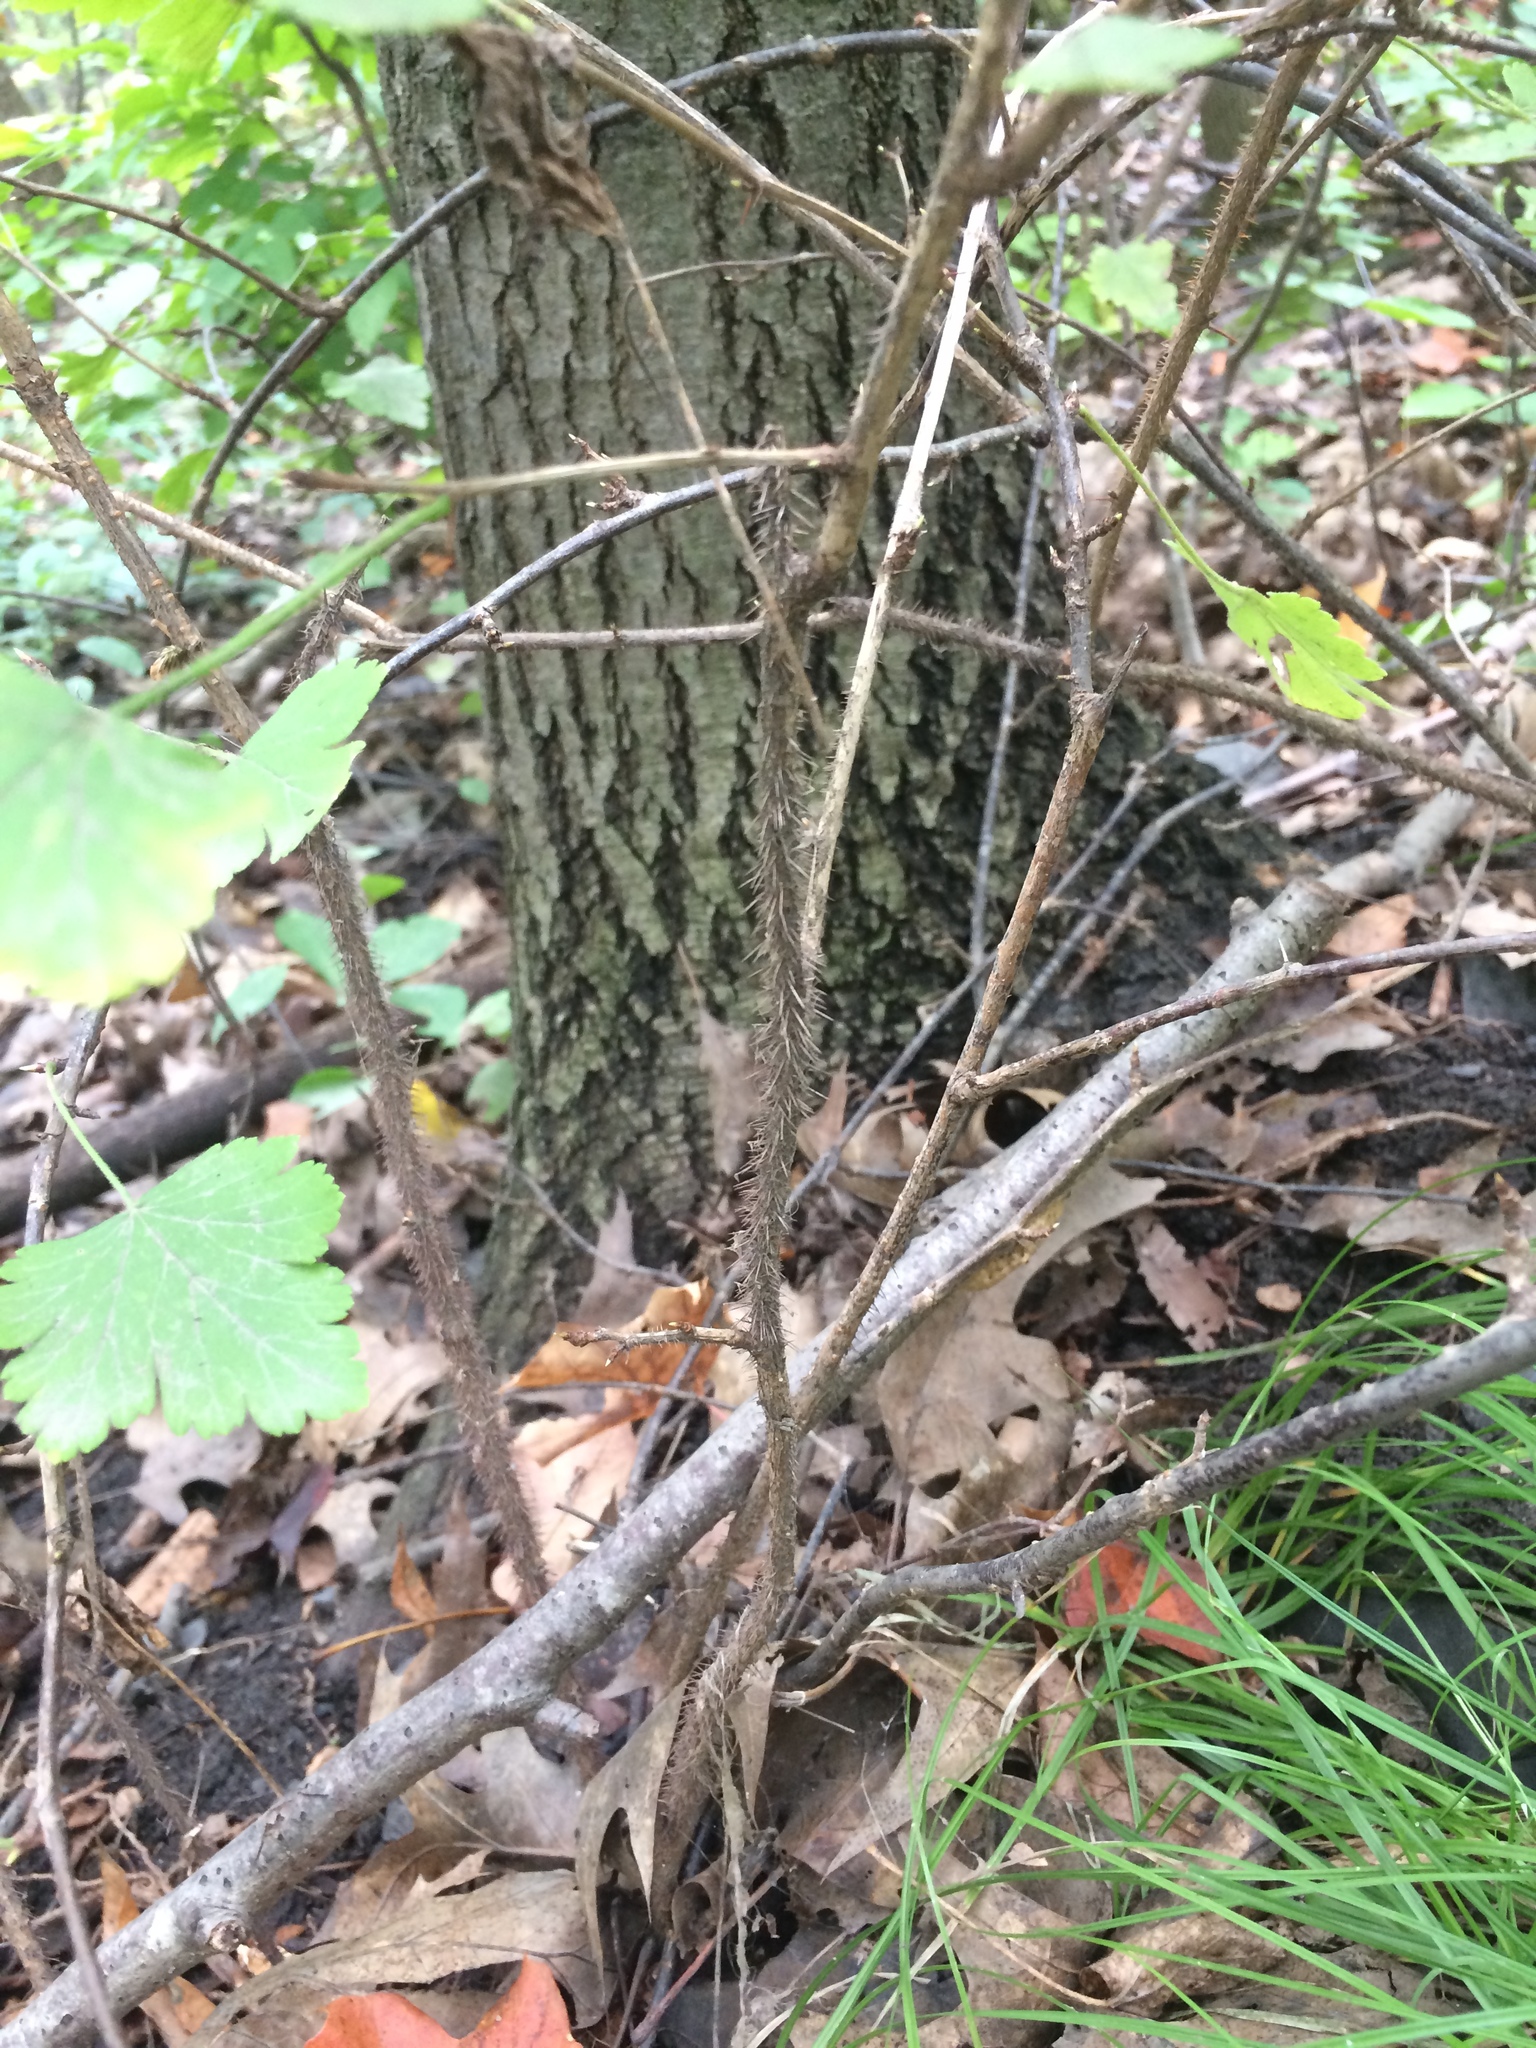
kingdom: Plantae
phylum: Tracheophyta
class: Magnoliopsida
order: Saxifragales
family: Grossulariaceae
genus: Ribes
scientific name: Ribes cynosbati
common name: American gooseberry
